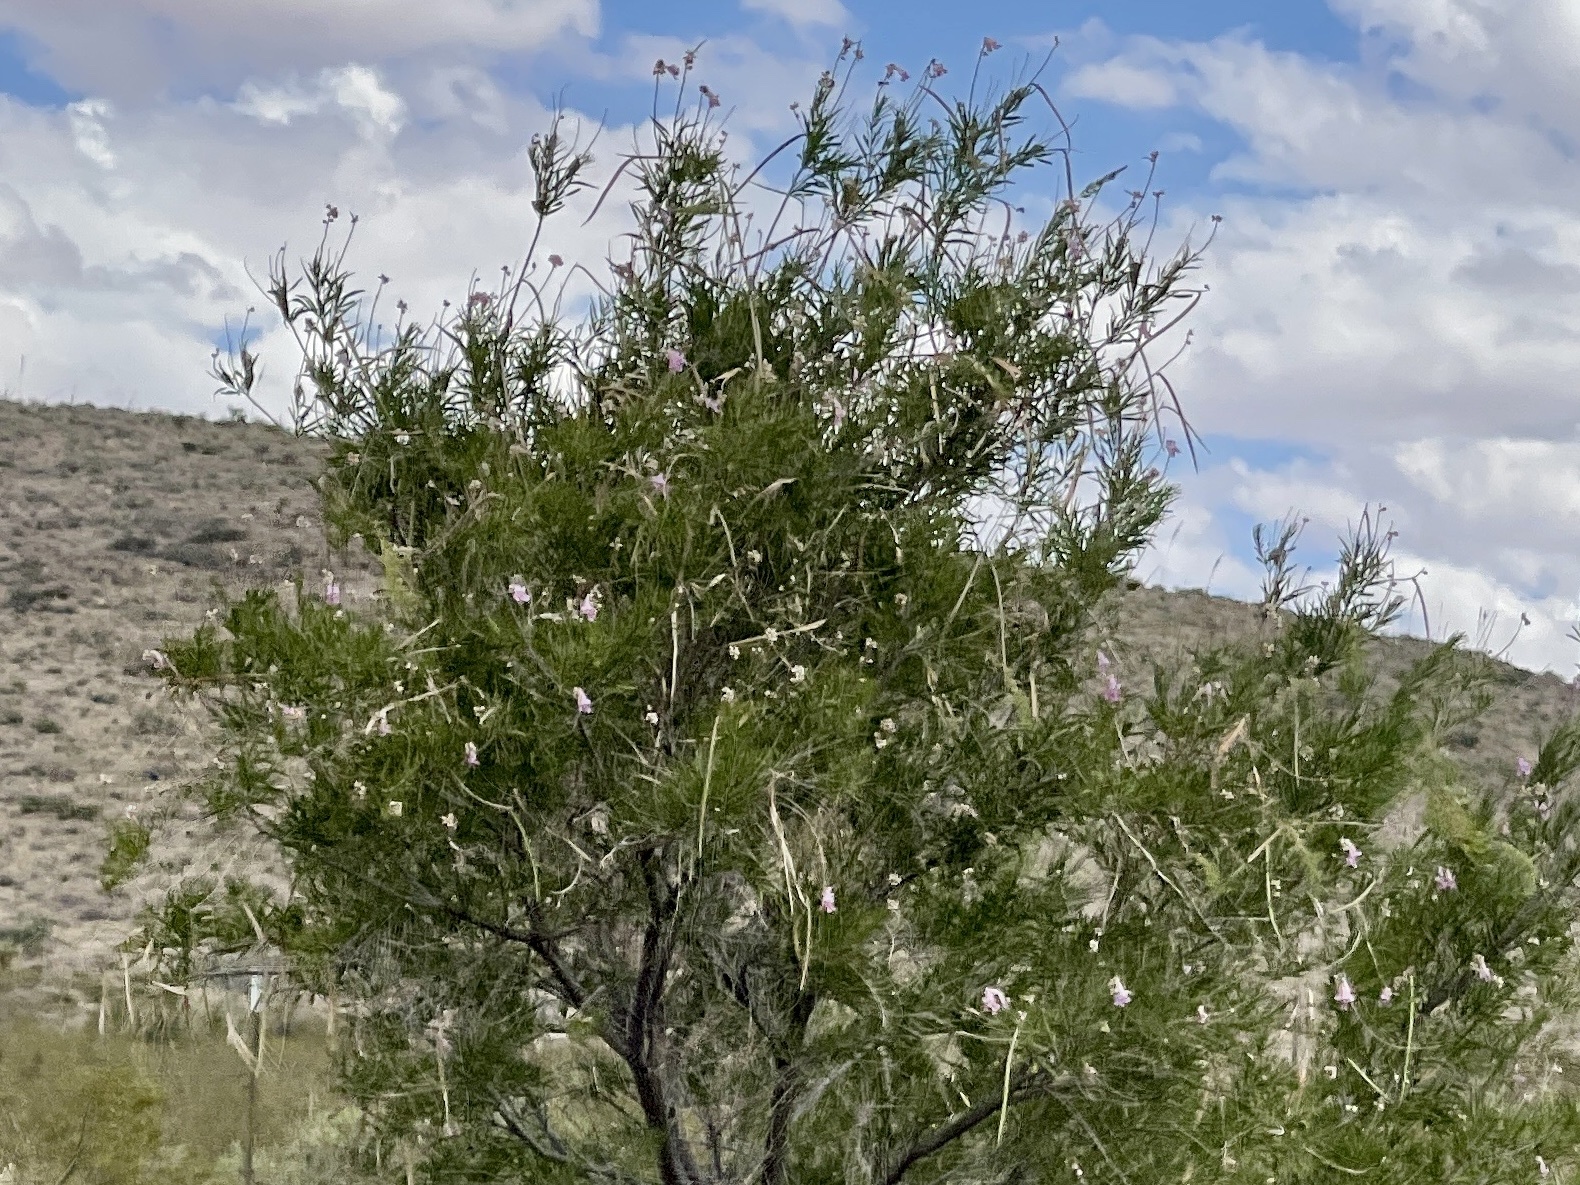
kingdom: Plantae
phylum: Tracheophyta
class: Magnoliopsida
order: Lamiales
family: Bignoniaceae
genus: Chilopsis
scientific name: Chilopsis linearis
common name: Desert-willow
